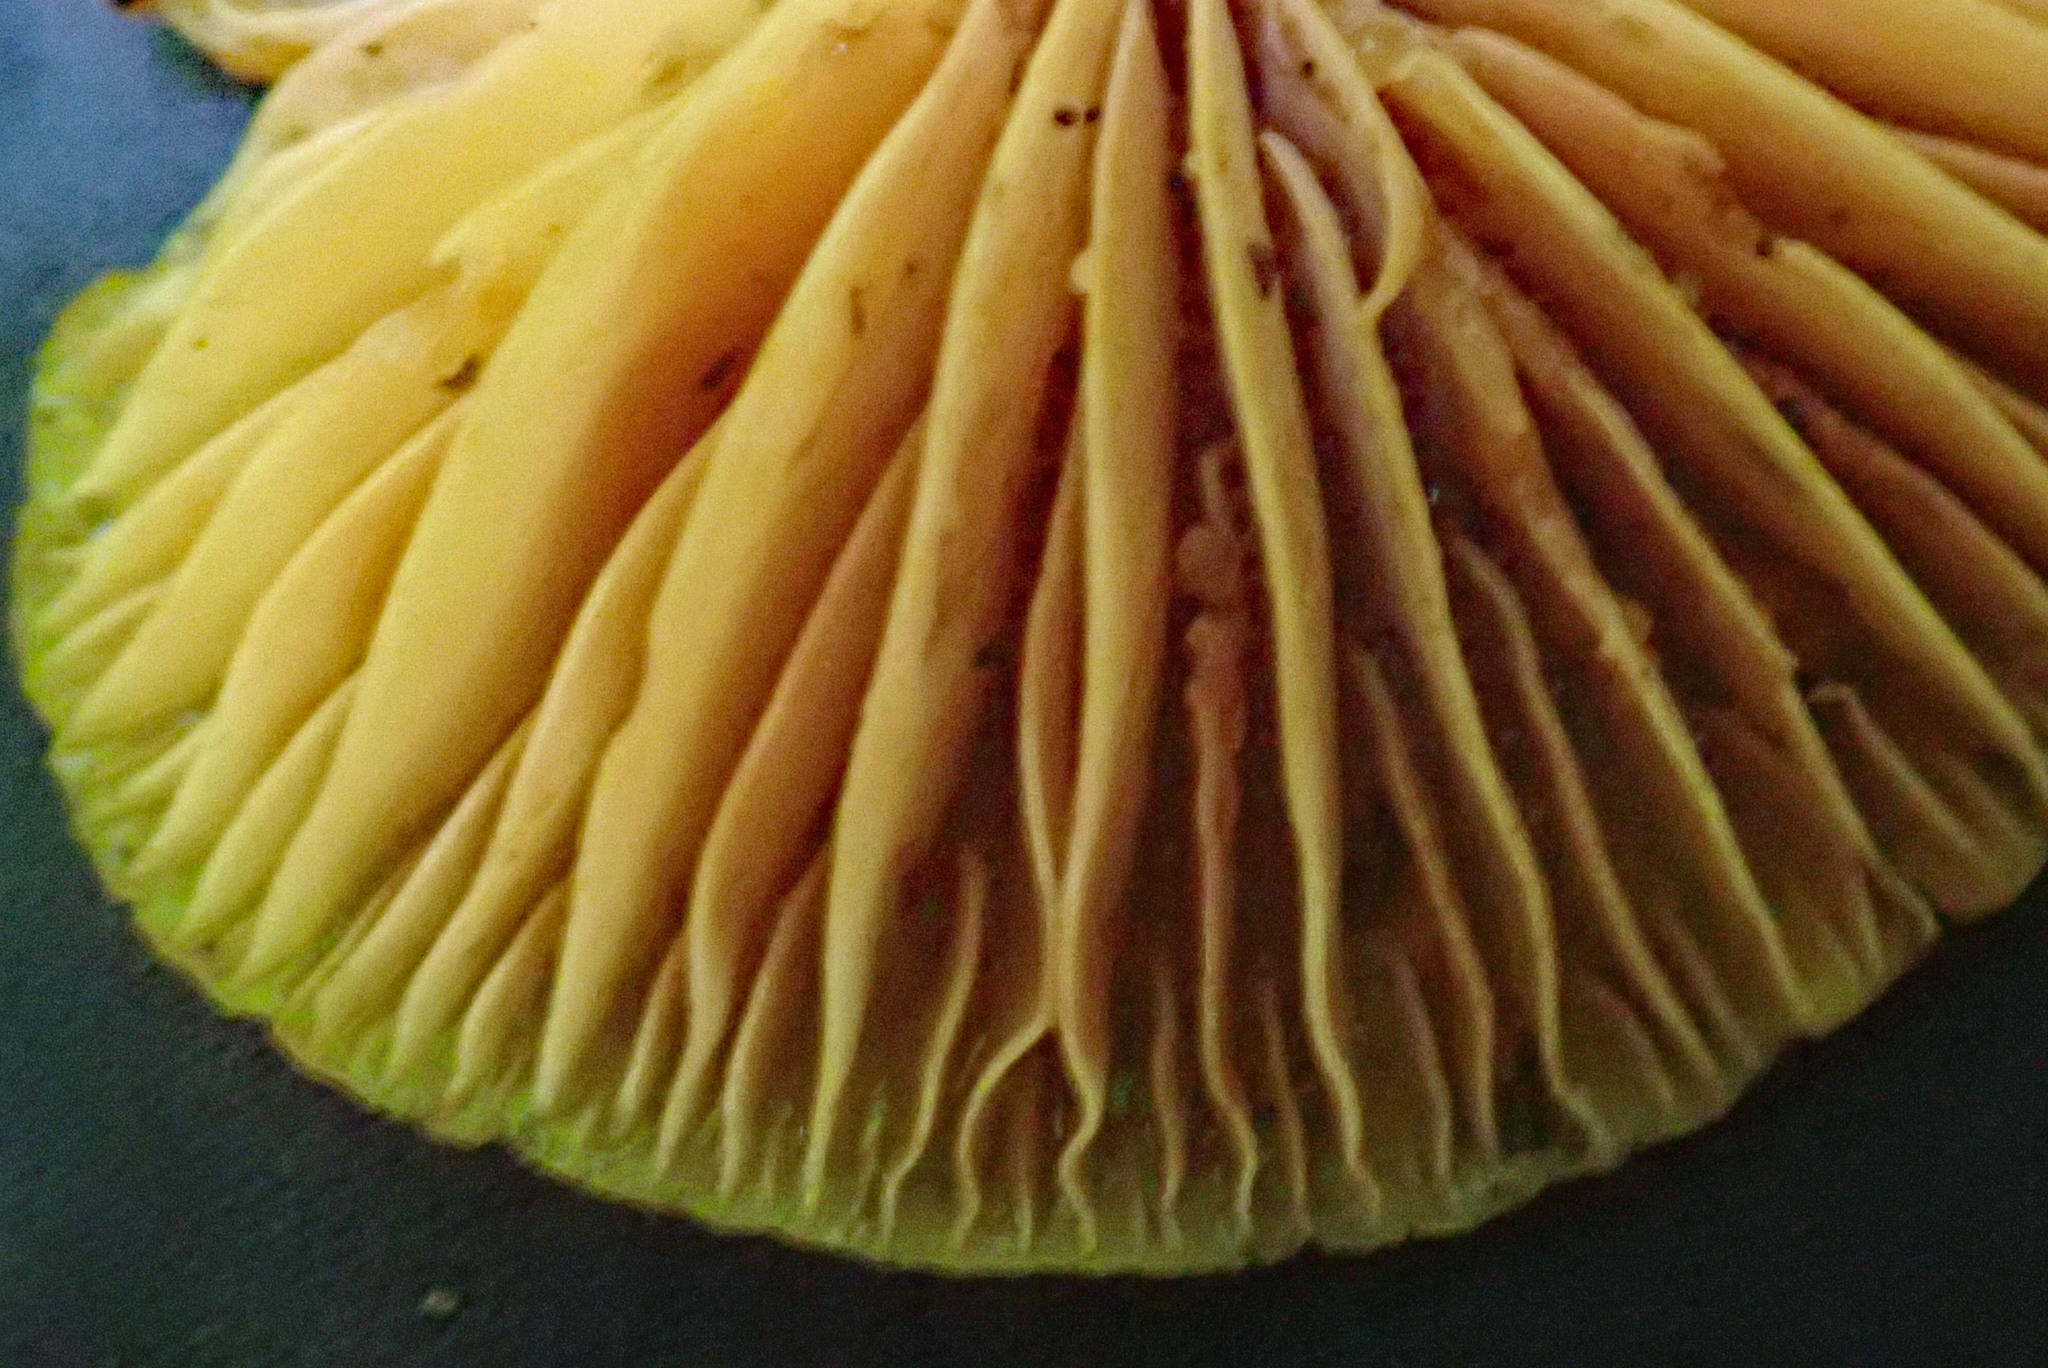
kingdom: Fungi
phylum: Basidiomycota
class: Agaricomycetes
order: Agaricales
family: Mycenaceae
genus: Heimiomyces
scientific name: Heimiomyces velutipes
